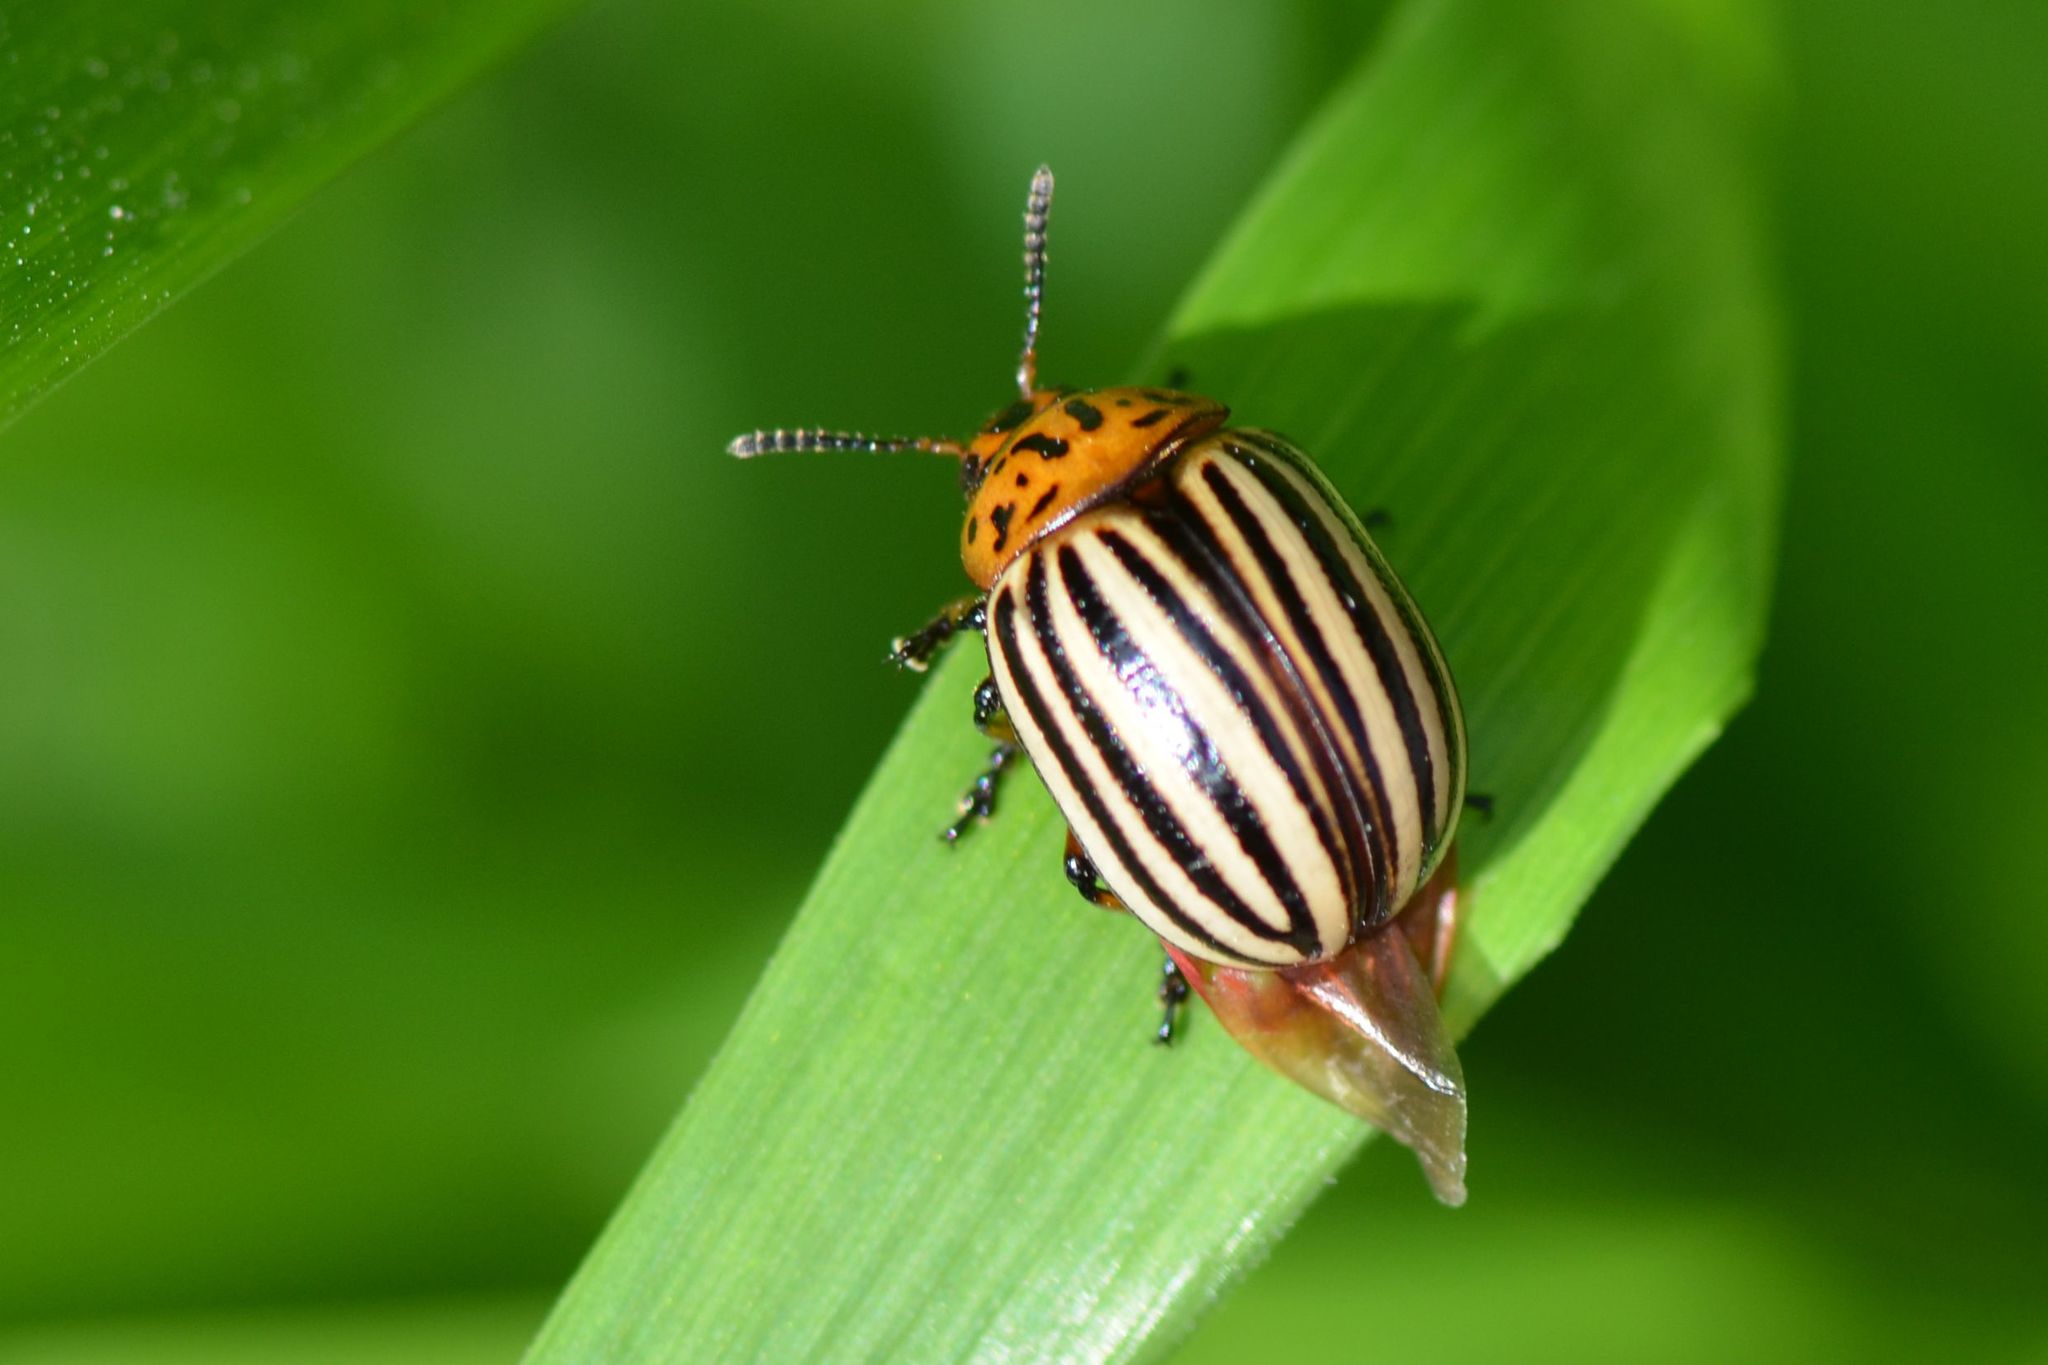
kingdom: Animalia
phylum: Arthropoda
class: Insecta
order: Coleoptera
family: Chrysomelidae
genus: Leptinotarsa
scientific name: Leptinotarsa decemlineata
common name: Colorado potato beetle
